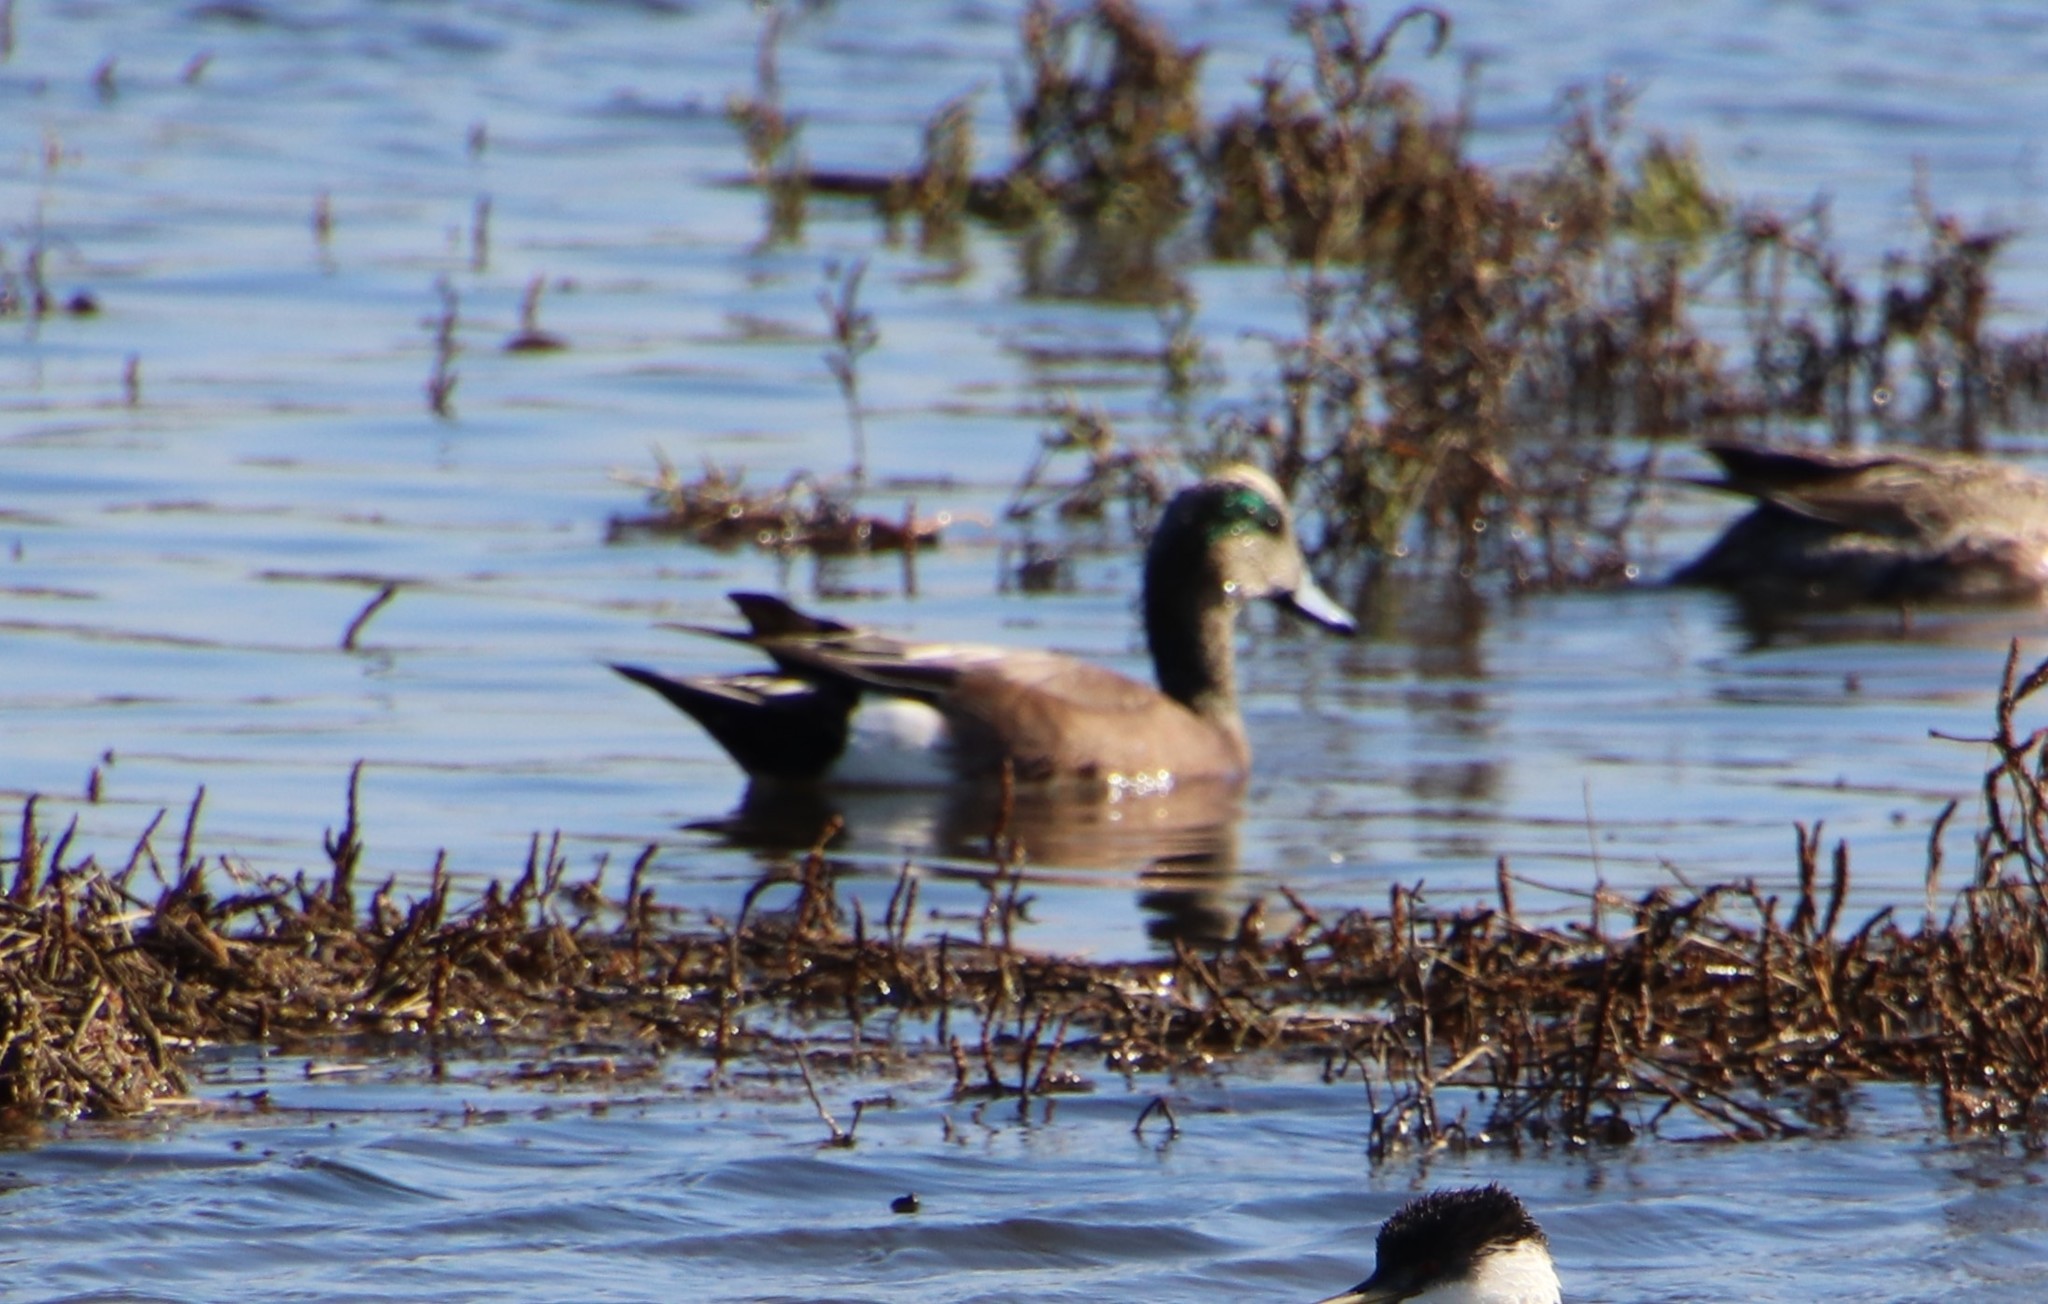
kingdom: Animalia
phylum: Chordata
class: Aves
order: Anseriformes
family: Anatidae
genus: Mareca
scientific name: Mareca americana
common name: American wigeon
